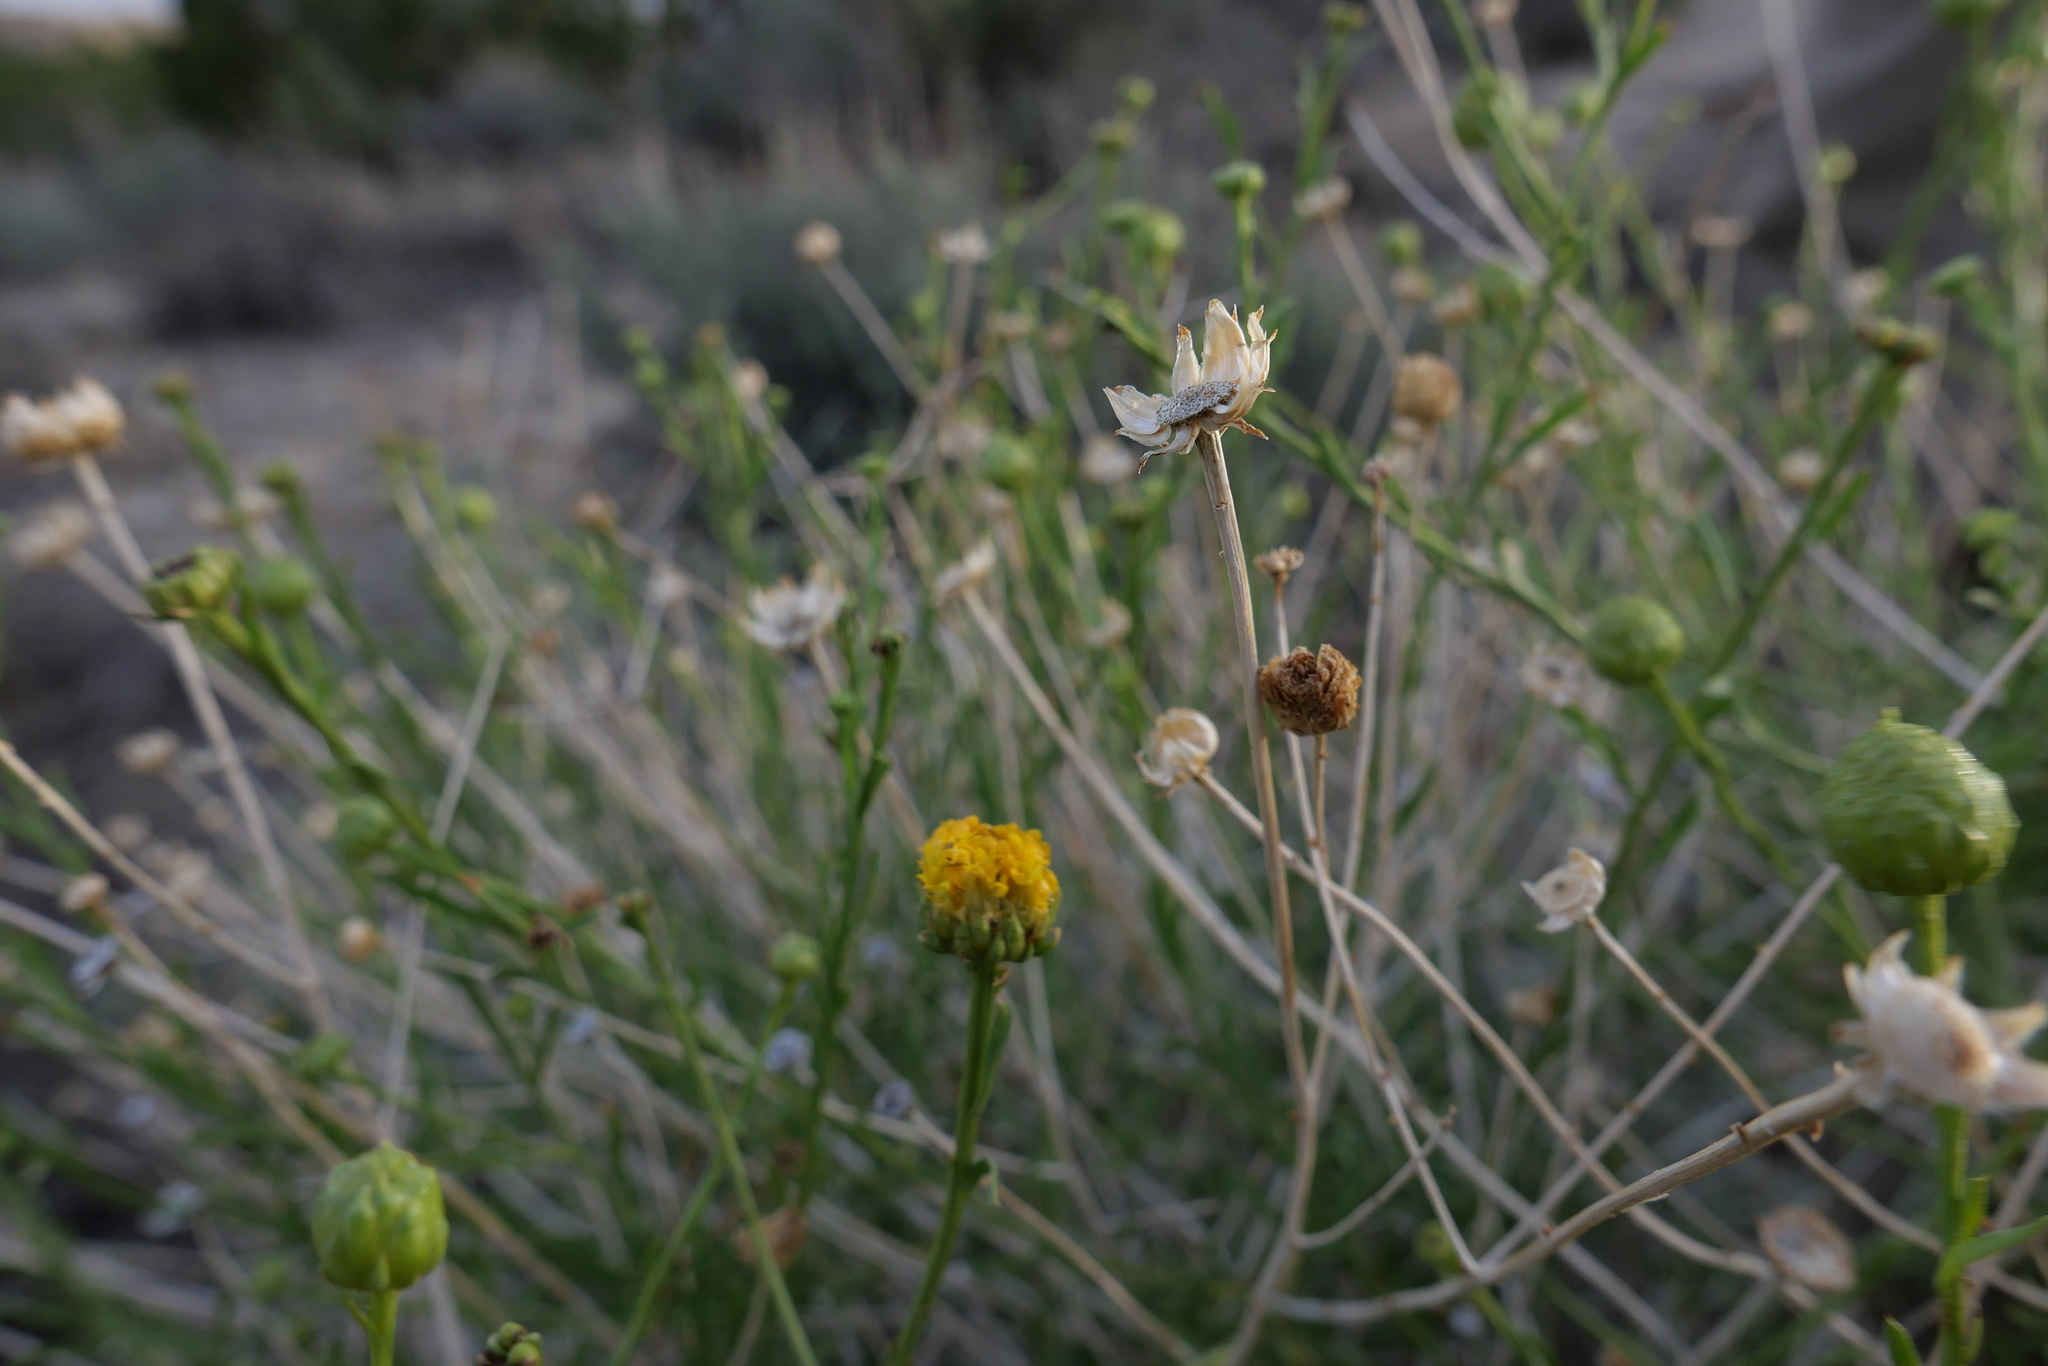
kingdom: Plantae
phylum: Tracheophyta
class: Magnoliopsida
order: Asterales
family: Asteraceae
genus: Eastwoodia
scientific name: Eastwoodia elegans
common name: Yellow-aster
